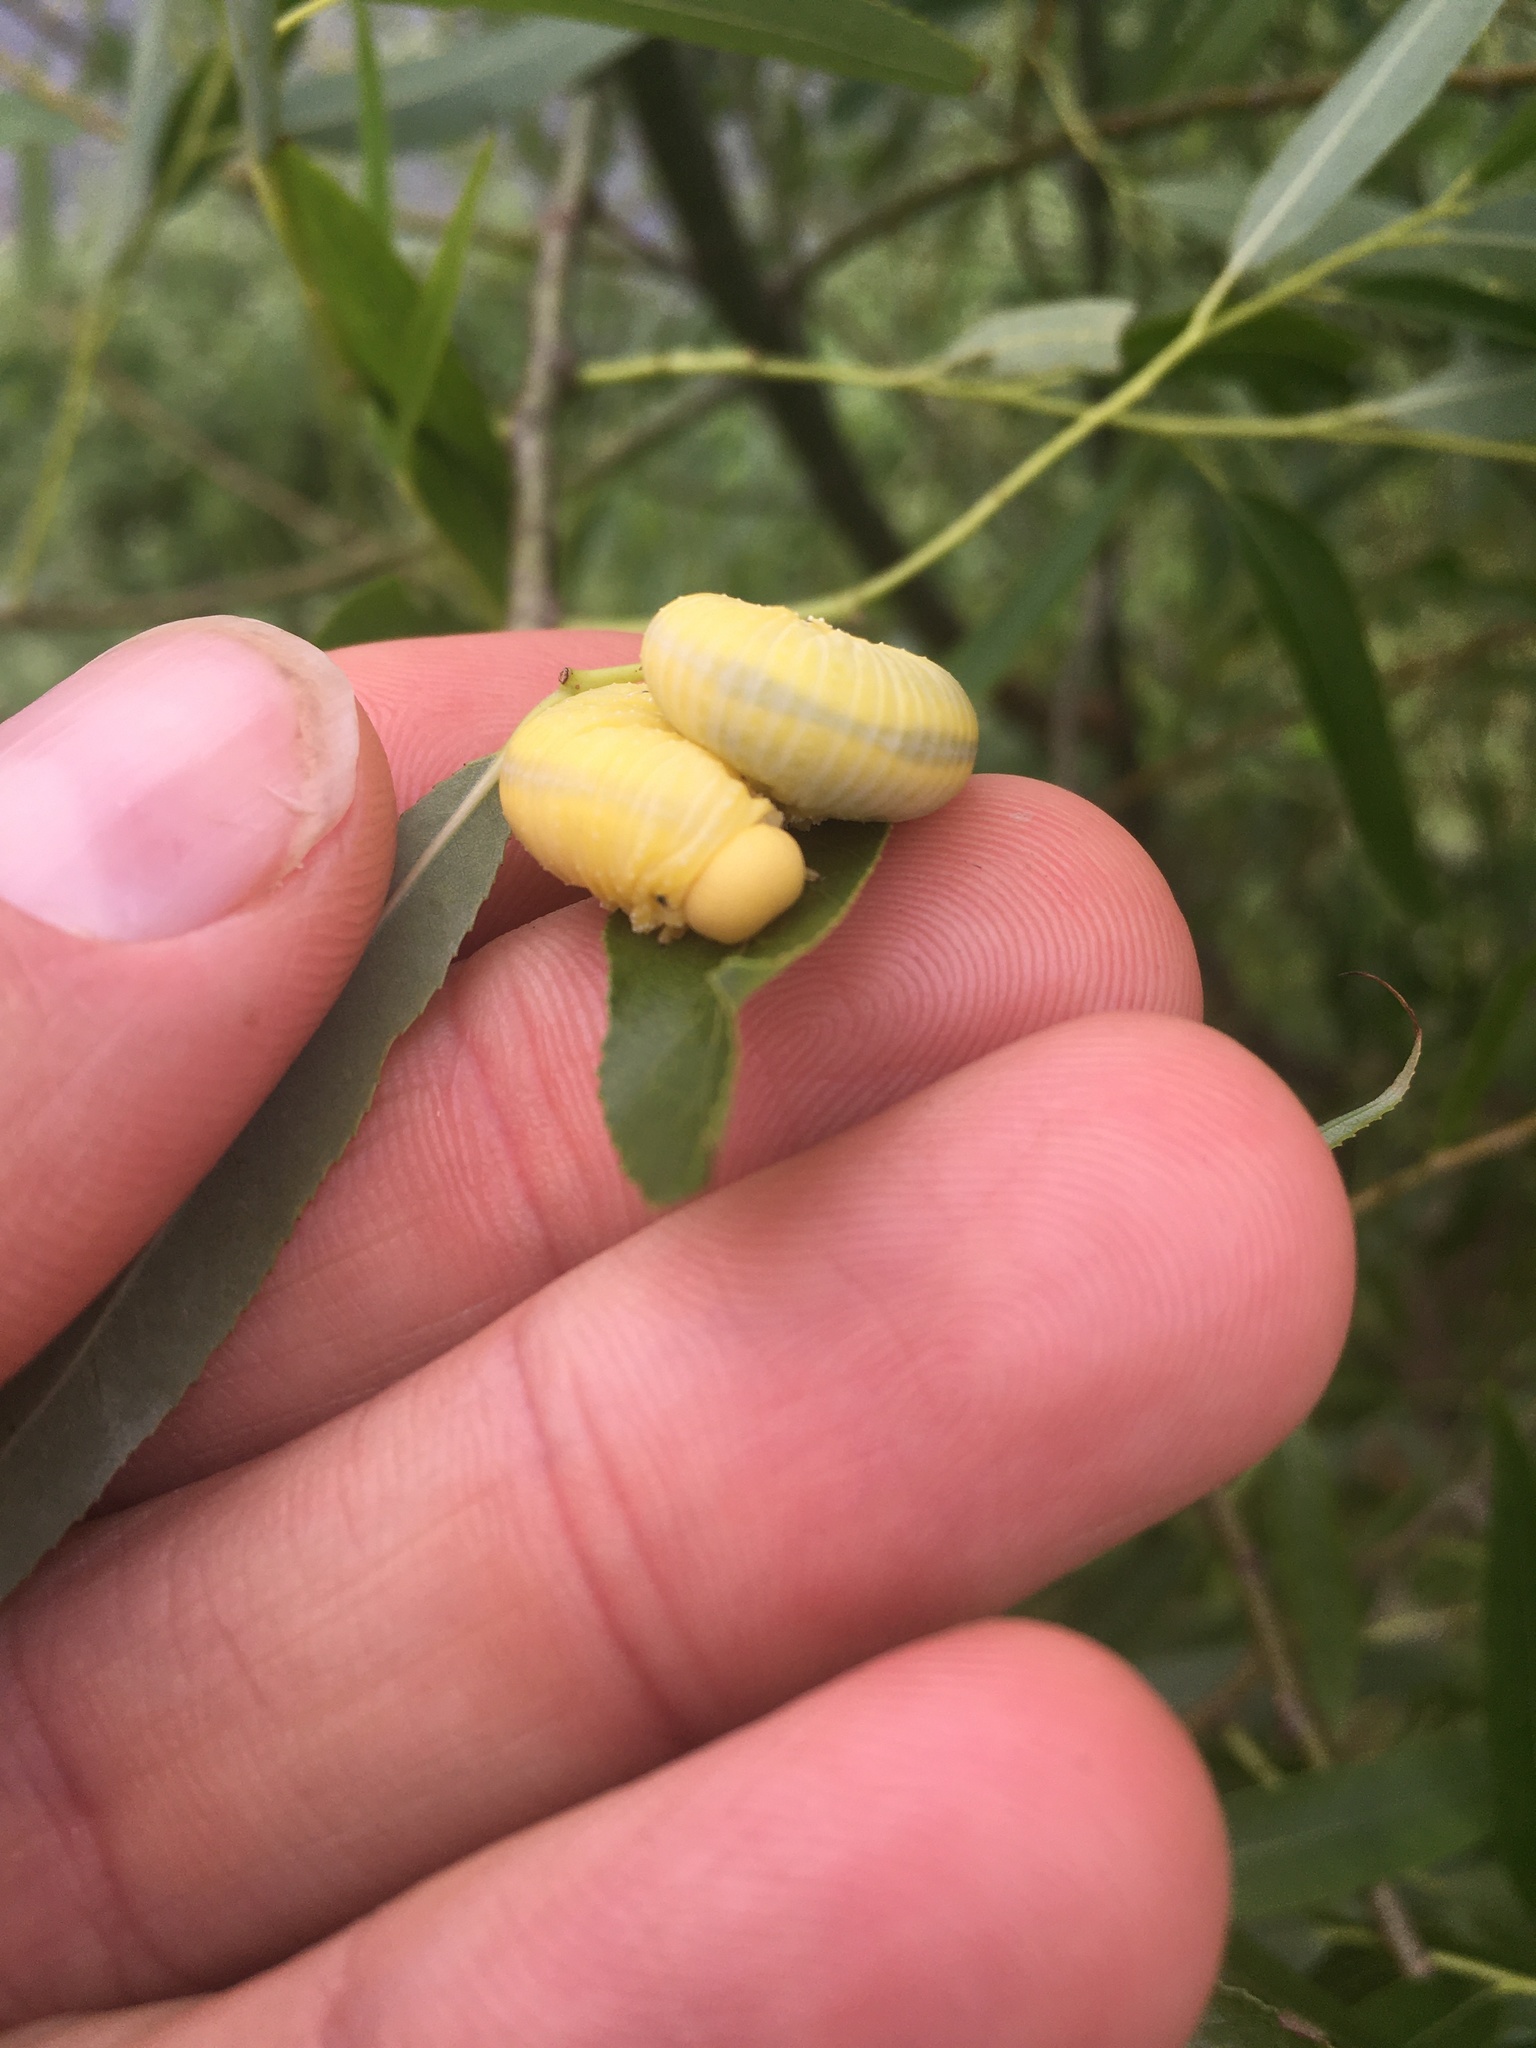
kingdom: Animalia
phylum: Arthropoda
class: Insecta
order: Hymenoptera
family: Cimbicidae
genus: Cimbex
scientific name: Cimbex americana
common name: Elm sawfly
